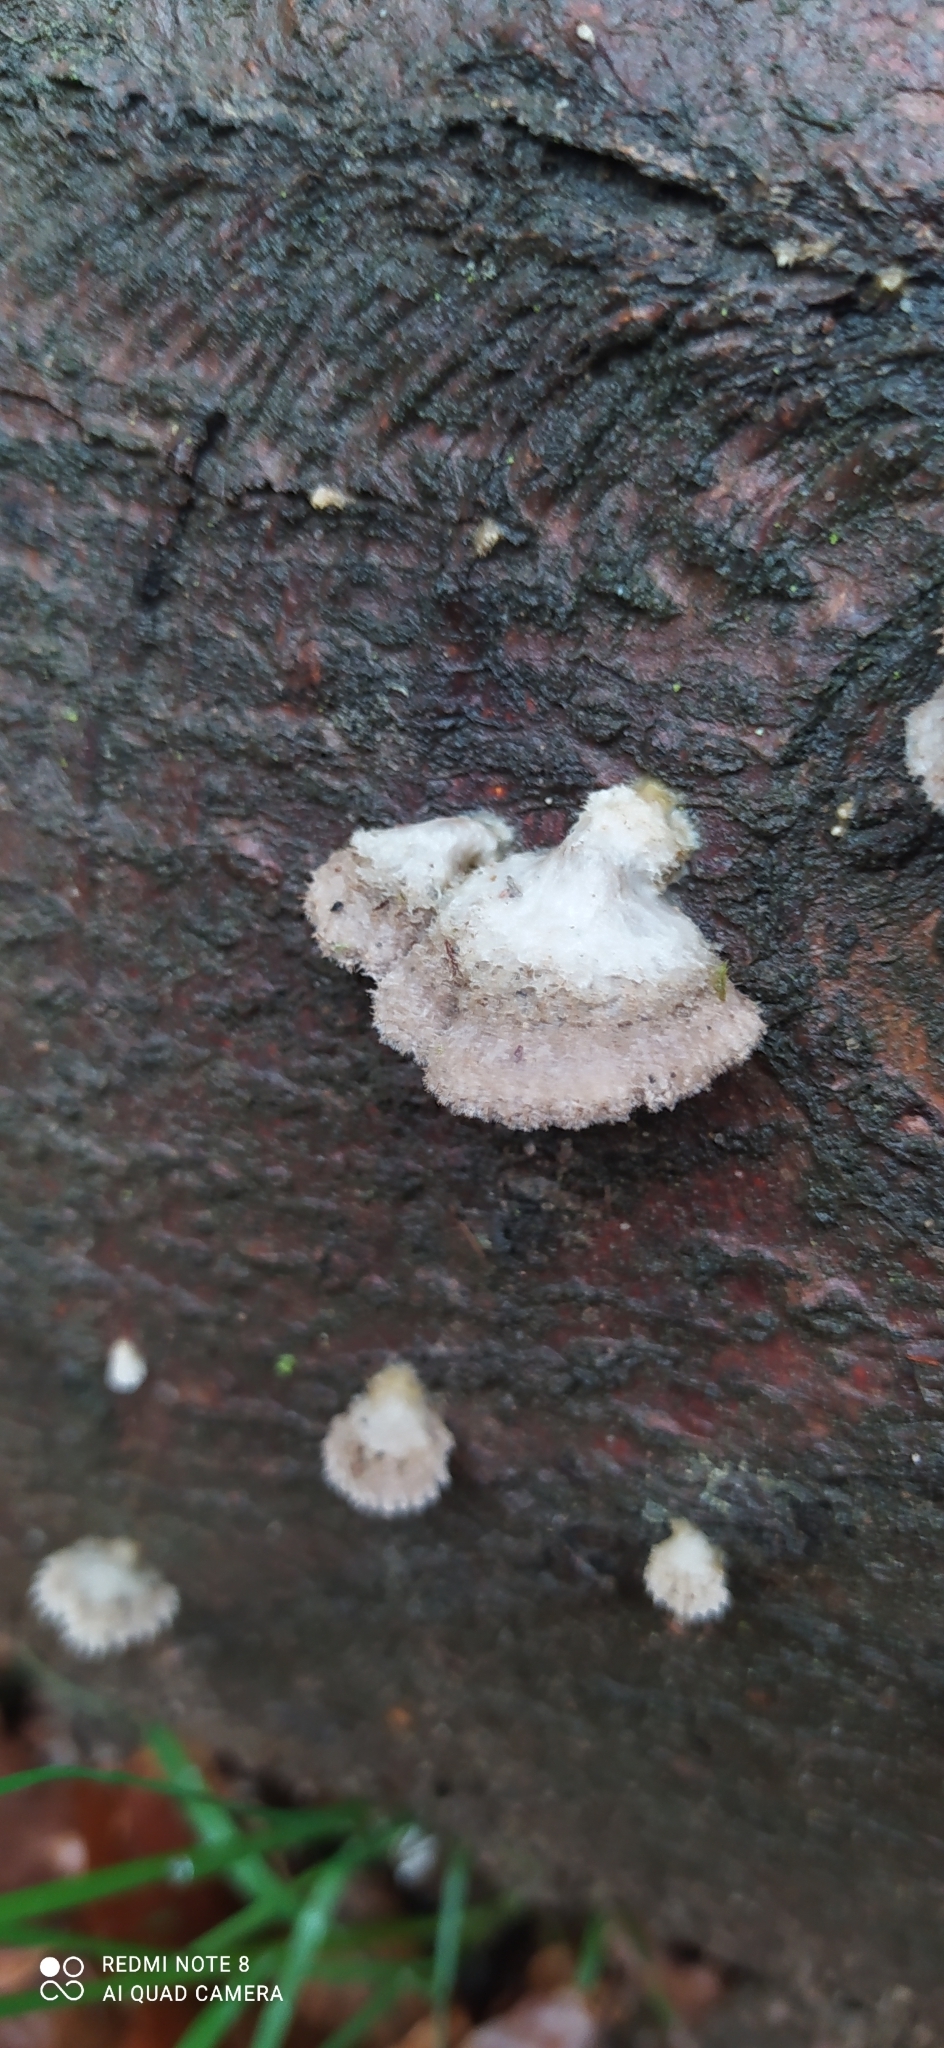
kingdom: Fungi
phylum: Basidiomycota
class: Agaricomycetes
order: Agaricales
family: Schizophyllaceae
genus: Schizophyllum
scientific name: Schizophyllum commune
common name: Common porecrust
